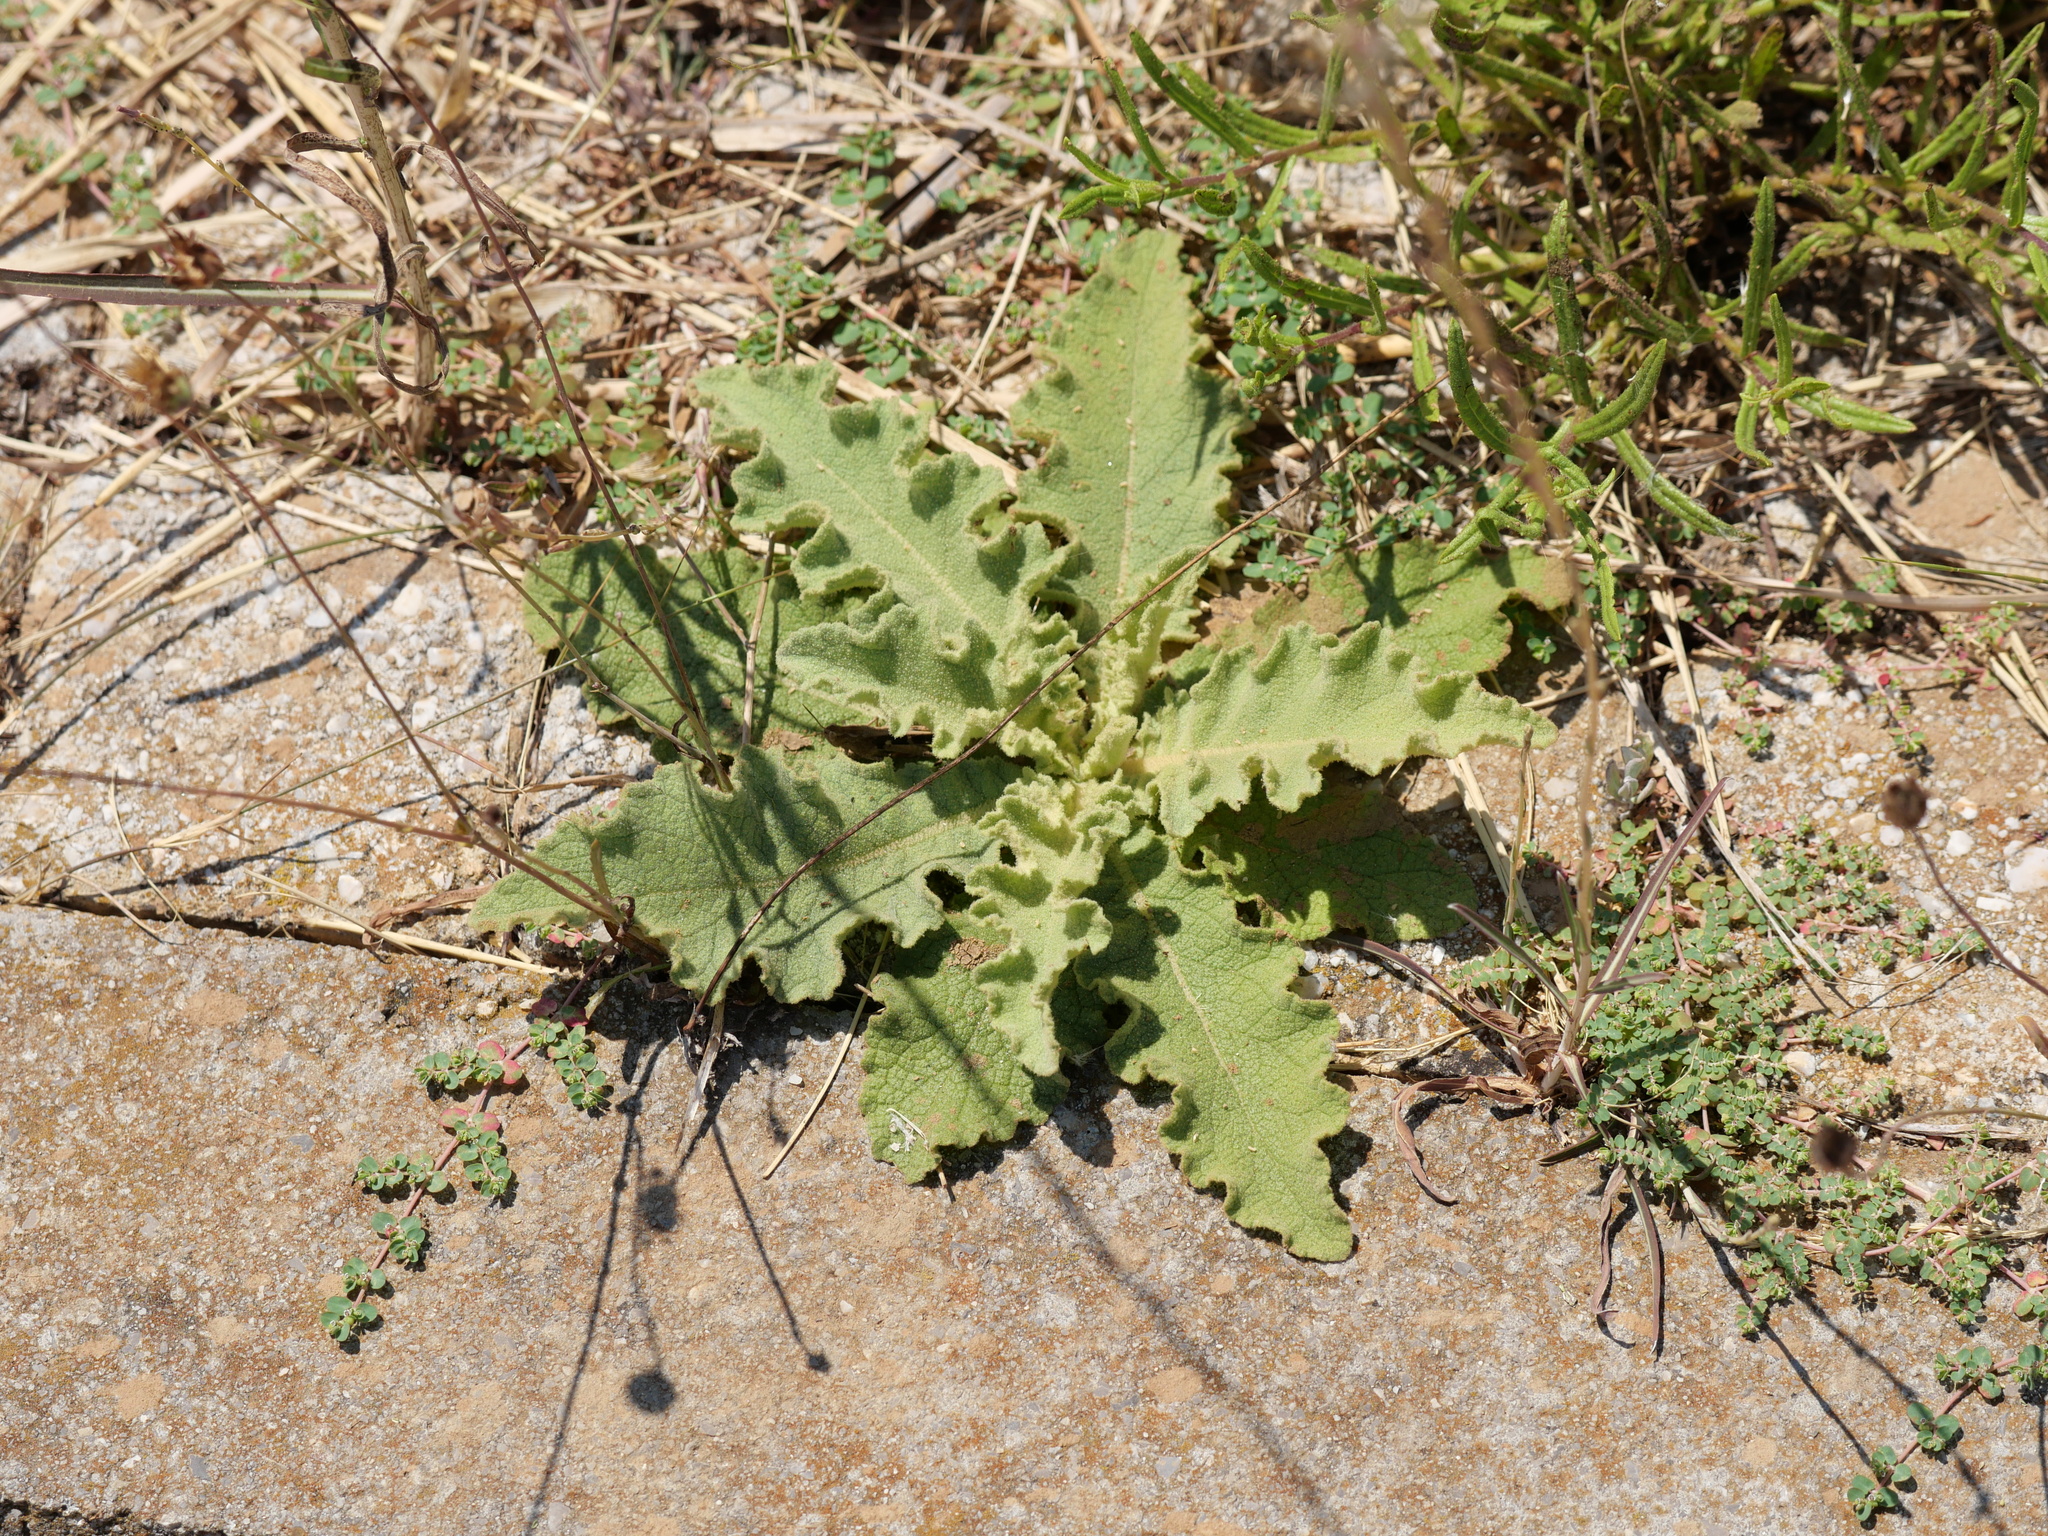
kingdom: Plantae
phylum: Tracheophyta
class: Magnoliopsida
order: Lamiales
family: Scrophulariaceae
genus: Verbascum
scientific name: Verbascum sinuatum
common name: Wavyleaf mullein
